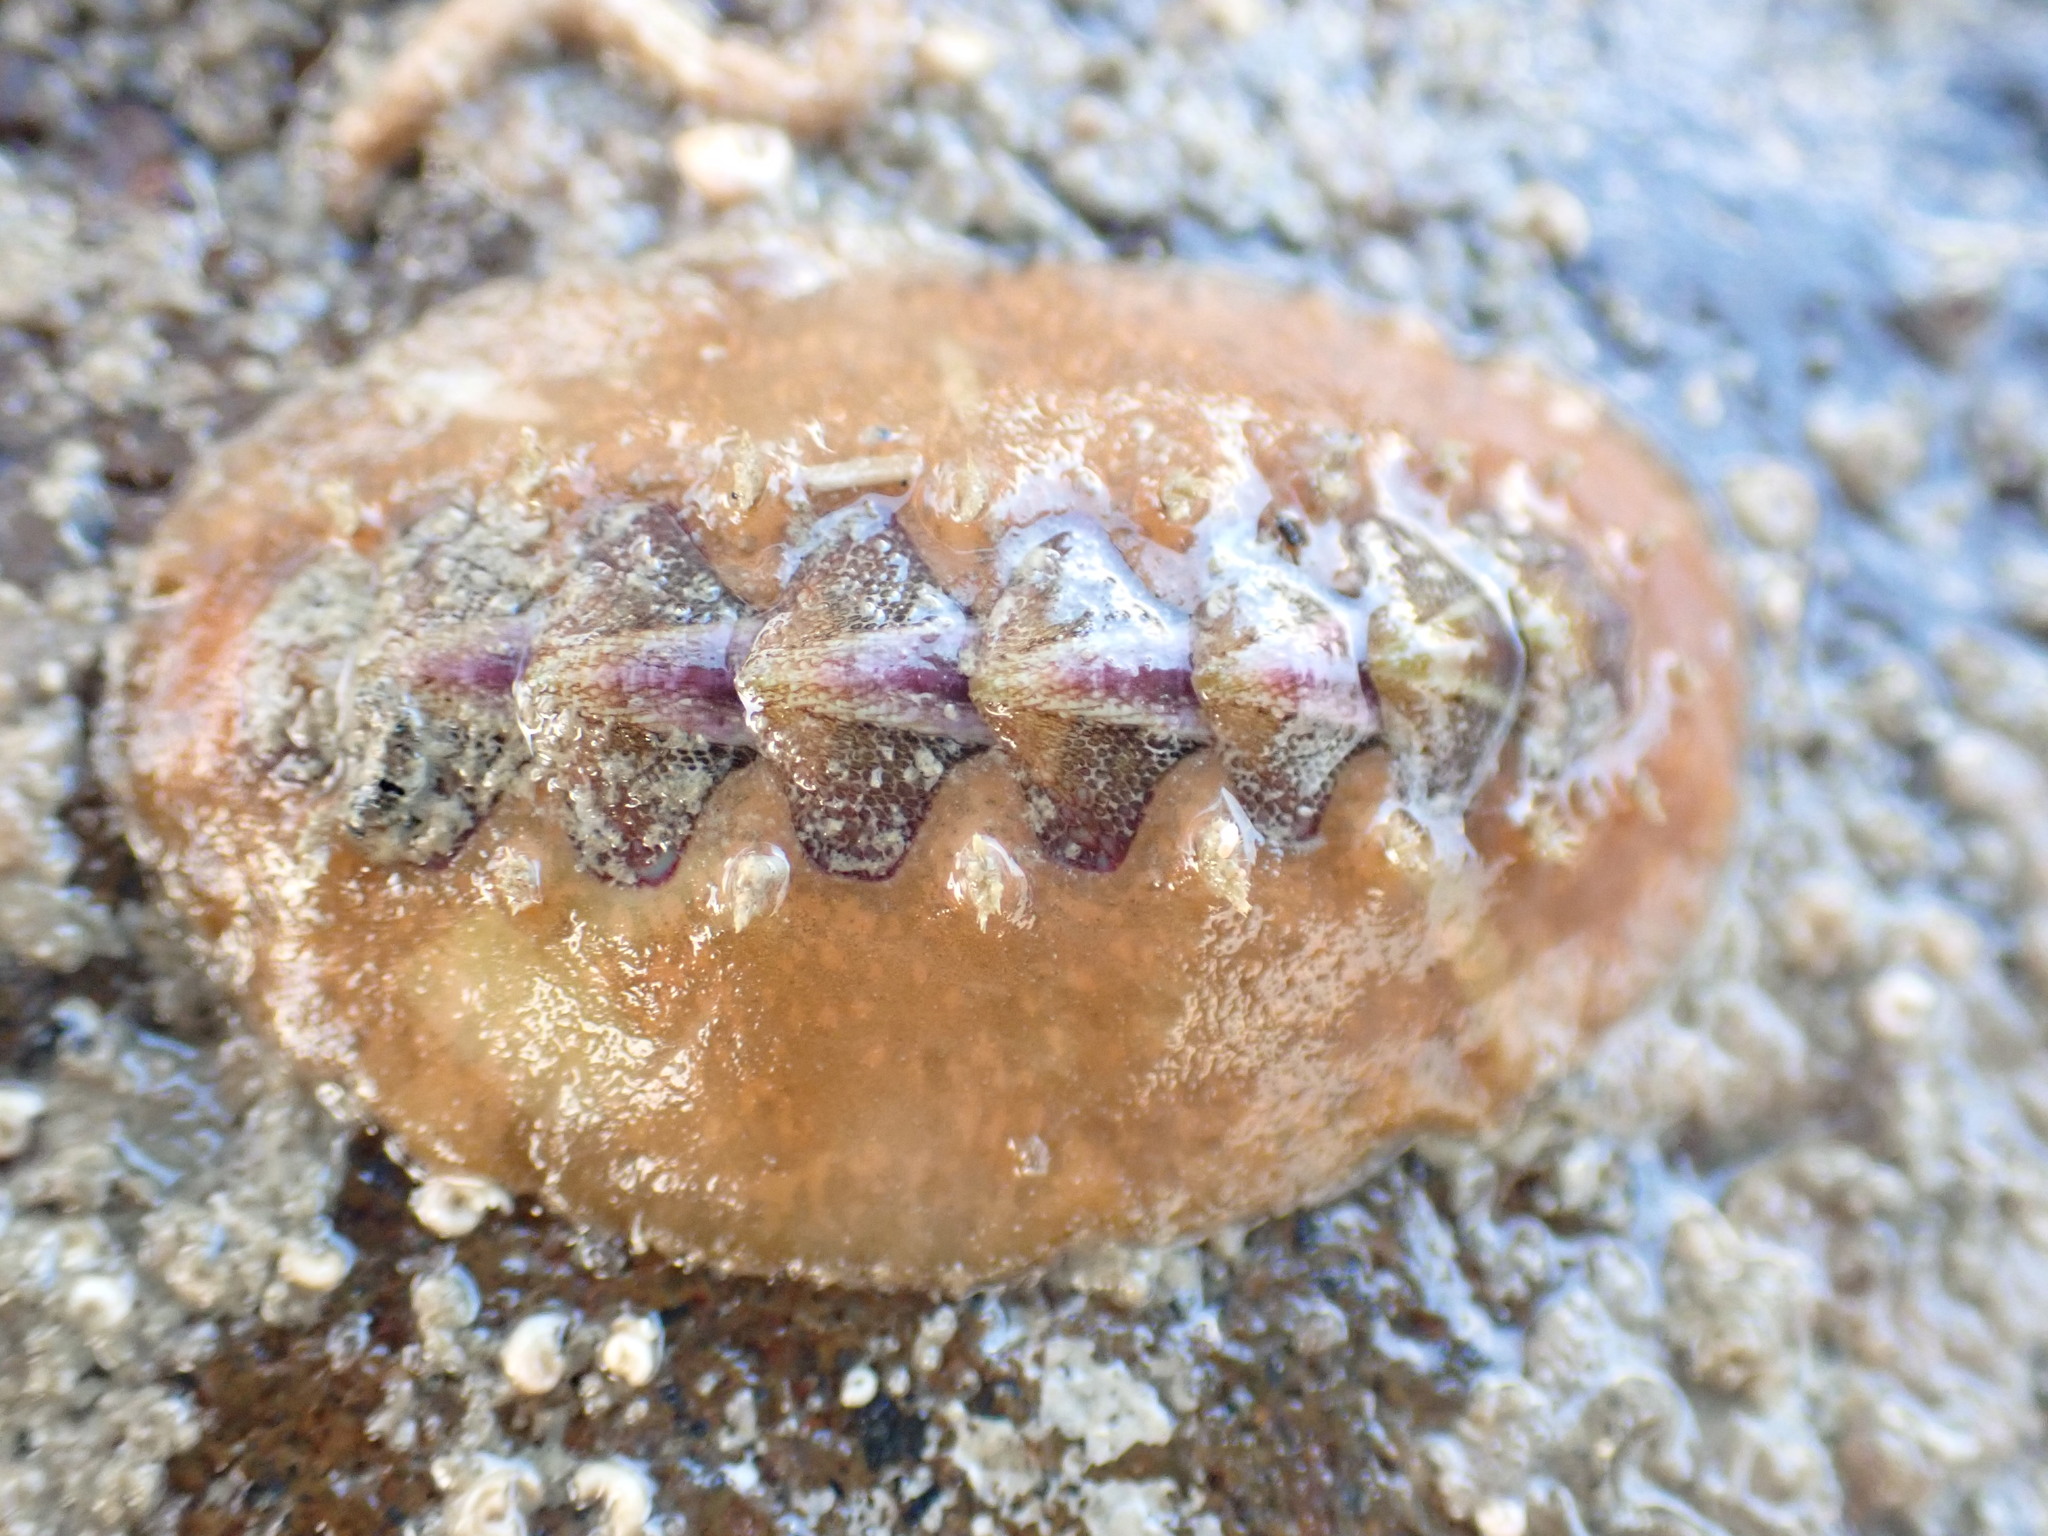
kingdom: Animalia
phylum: Mollusca
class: Polyplacophora
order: Chitonida
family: Acanthochitonidae
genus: Notoplax
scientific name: Notoplax violacea
